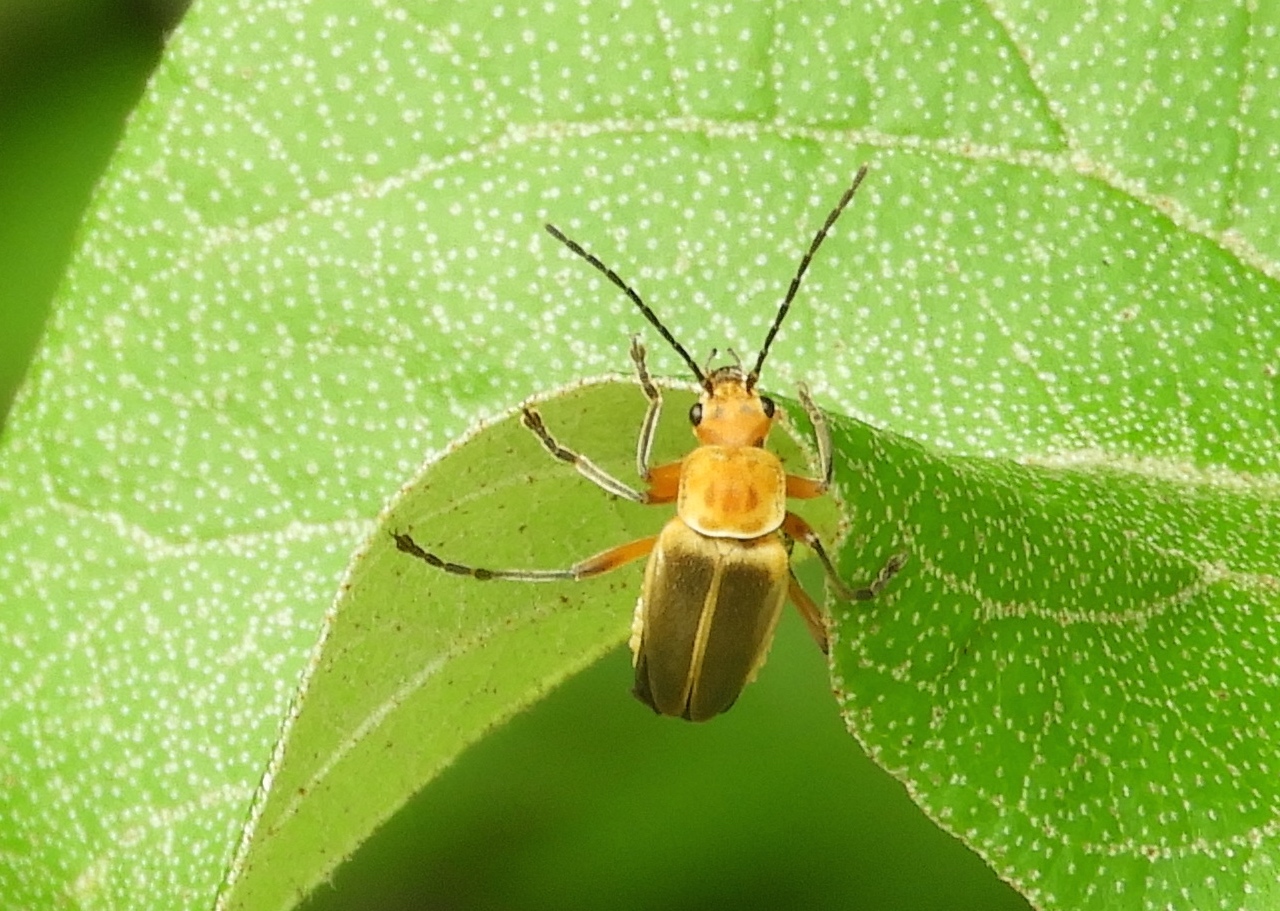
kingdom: Animalia
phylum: Arthropoda
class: Insecta
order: Coleoptera
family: Cantharidae
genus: Chauliognathus
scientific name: Chauliognathus
